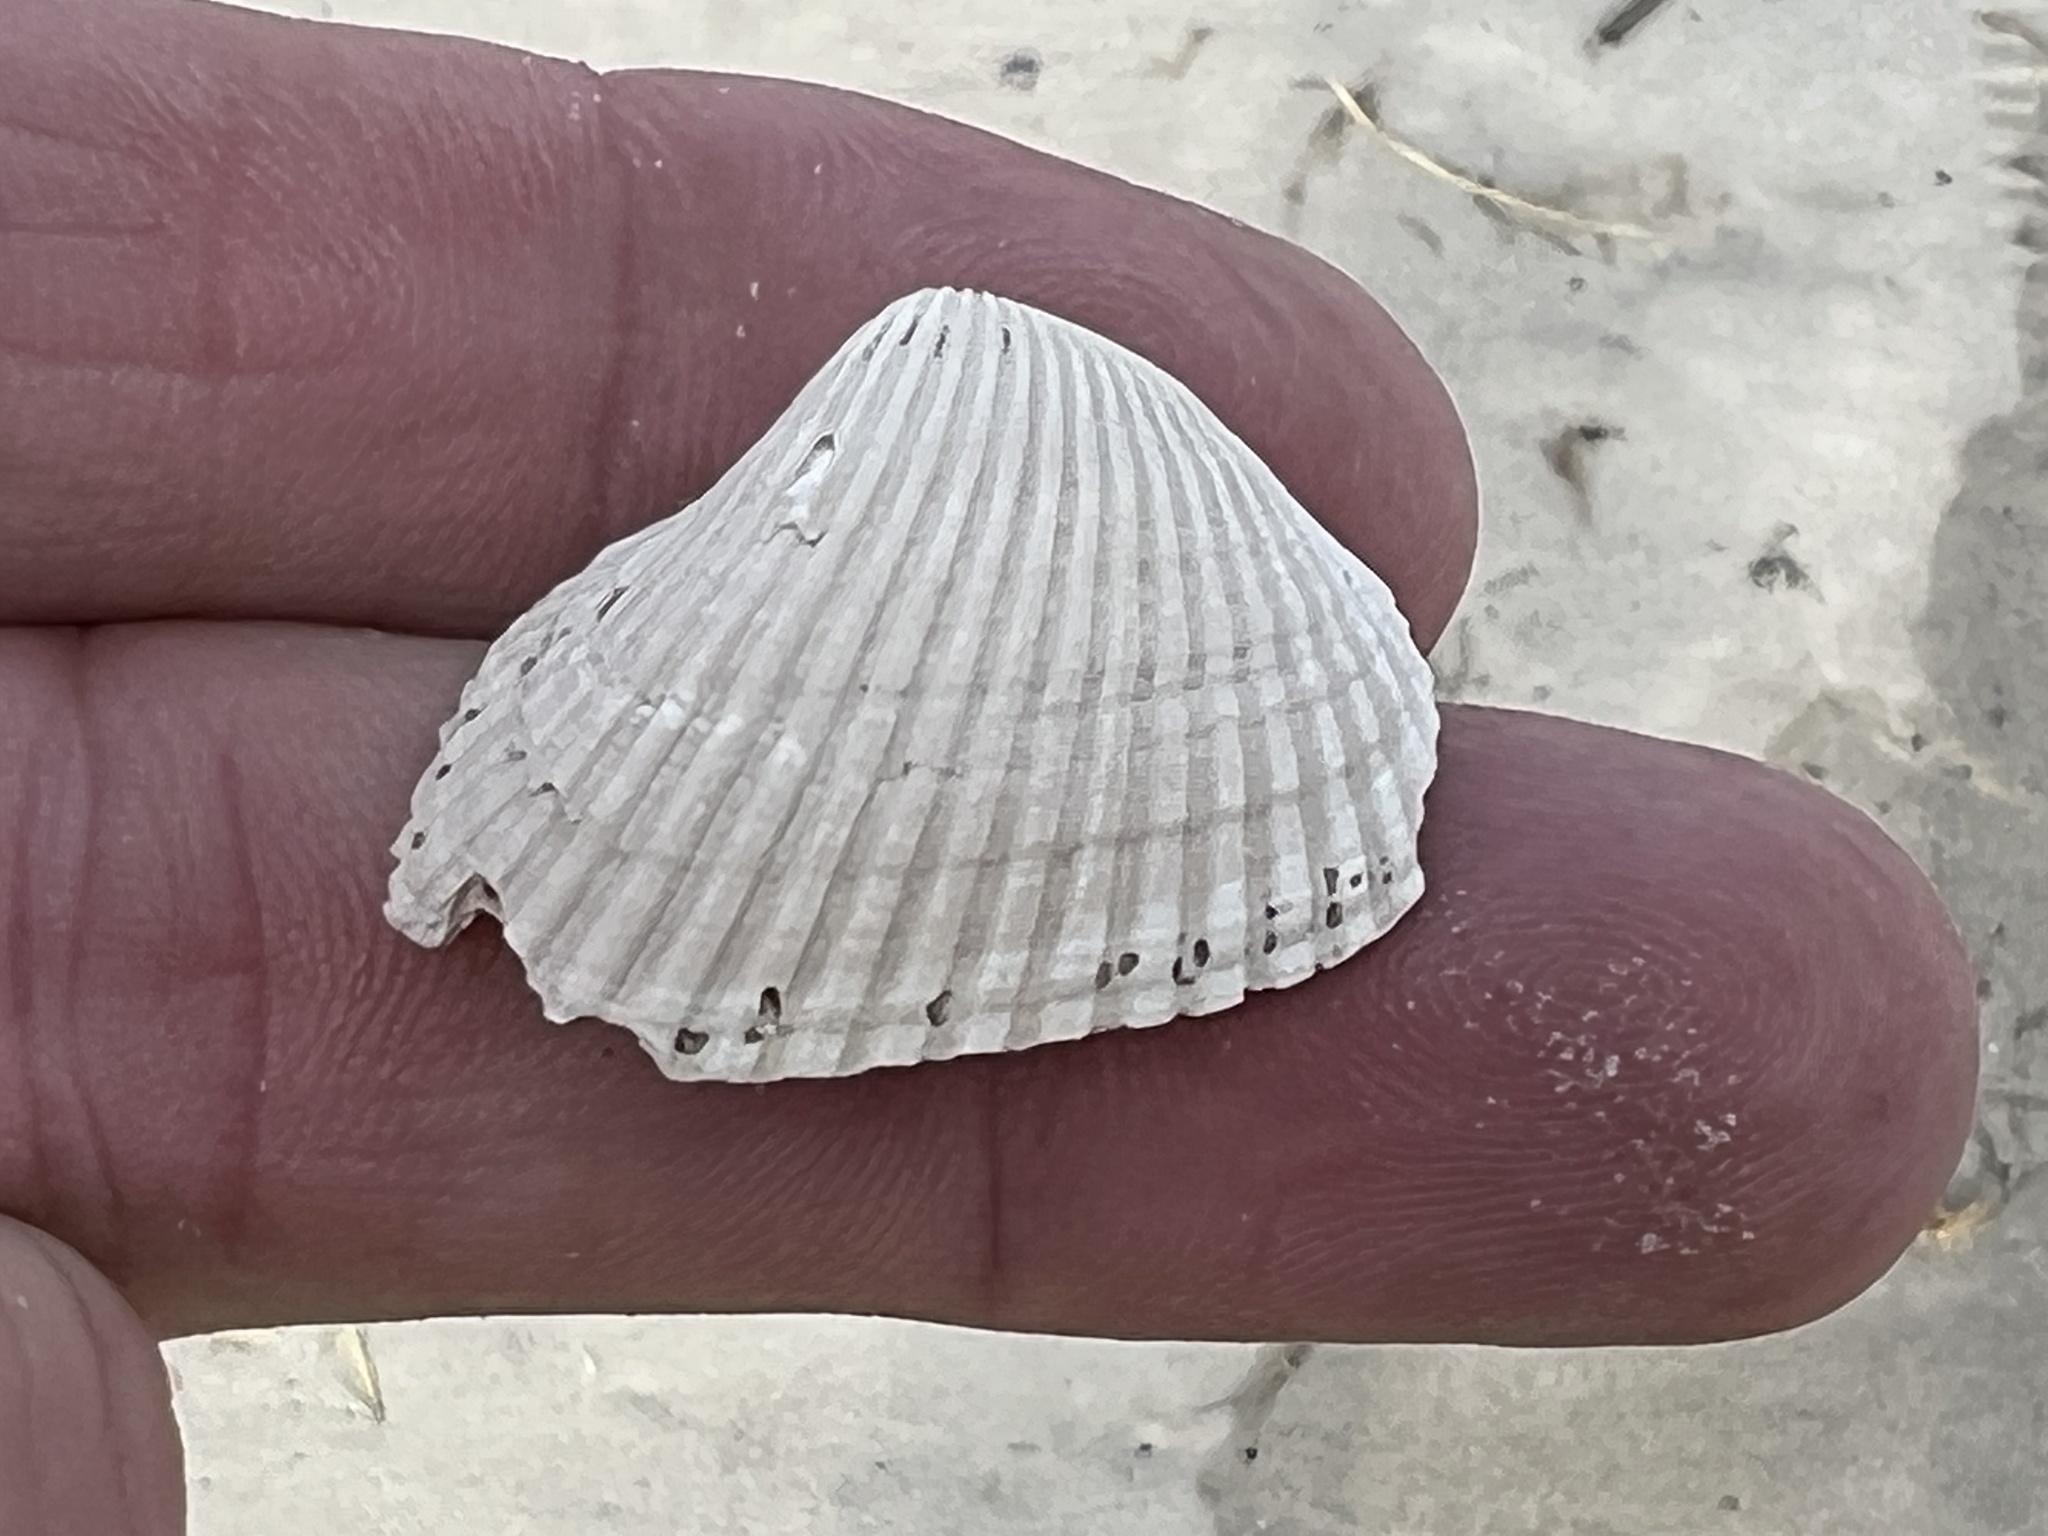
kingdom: Animalia
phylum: Mollusca
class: Bivalvia
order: Arcida
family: Noetiidae
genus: Noetia
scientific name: Noetia ponderosa
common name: Ponderous ark
